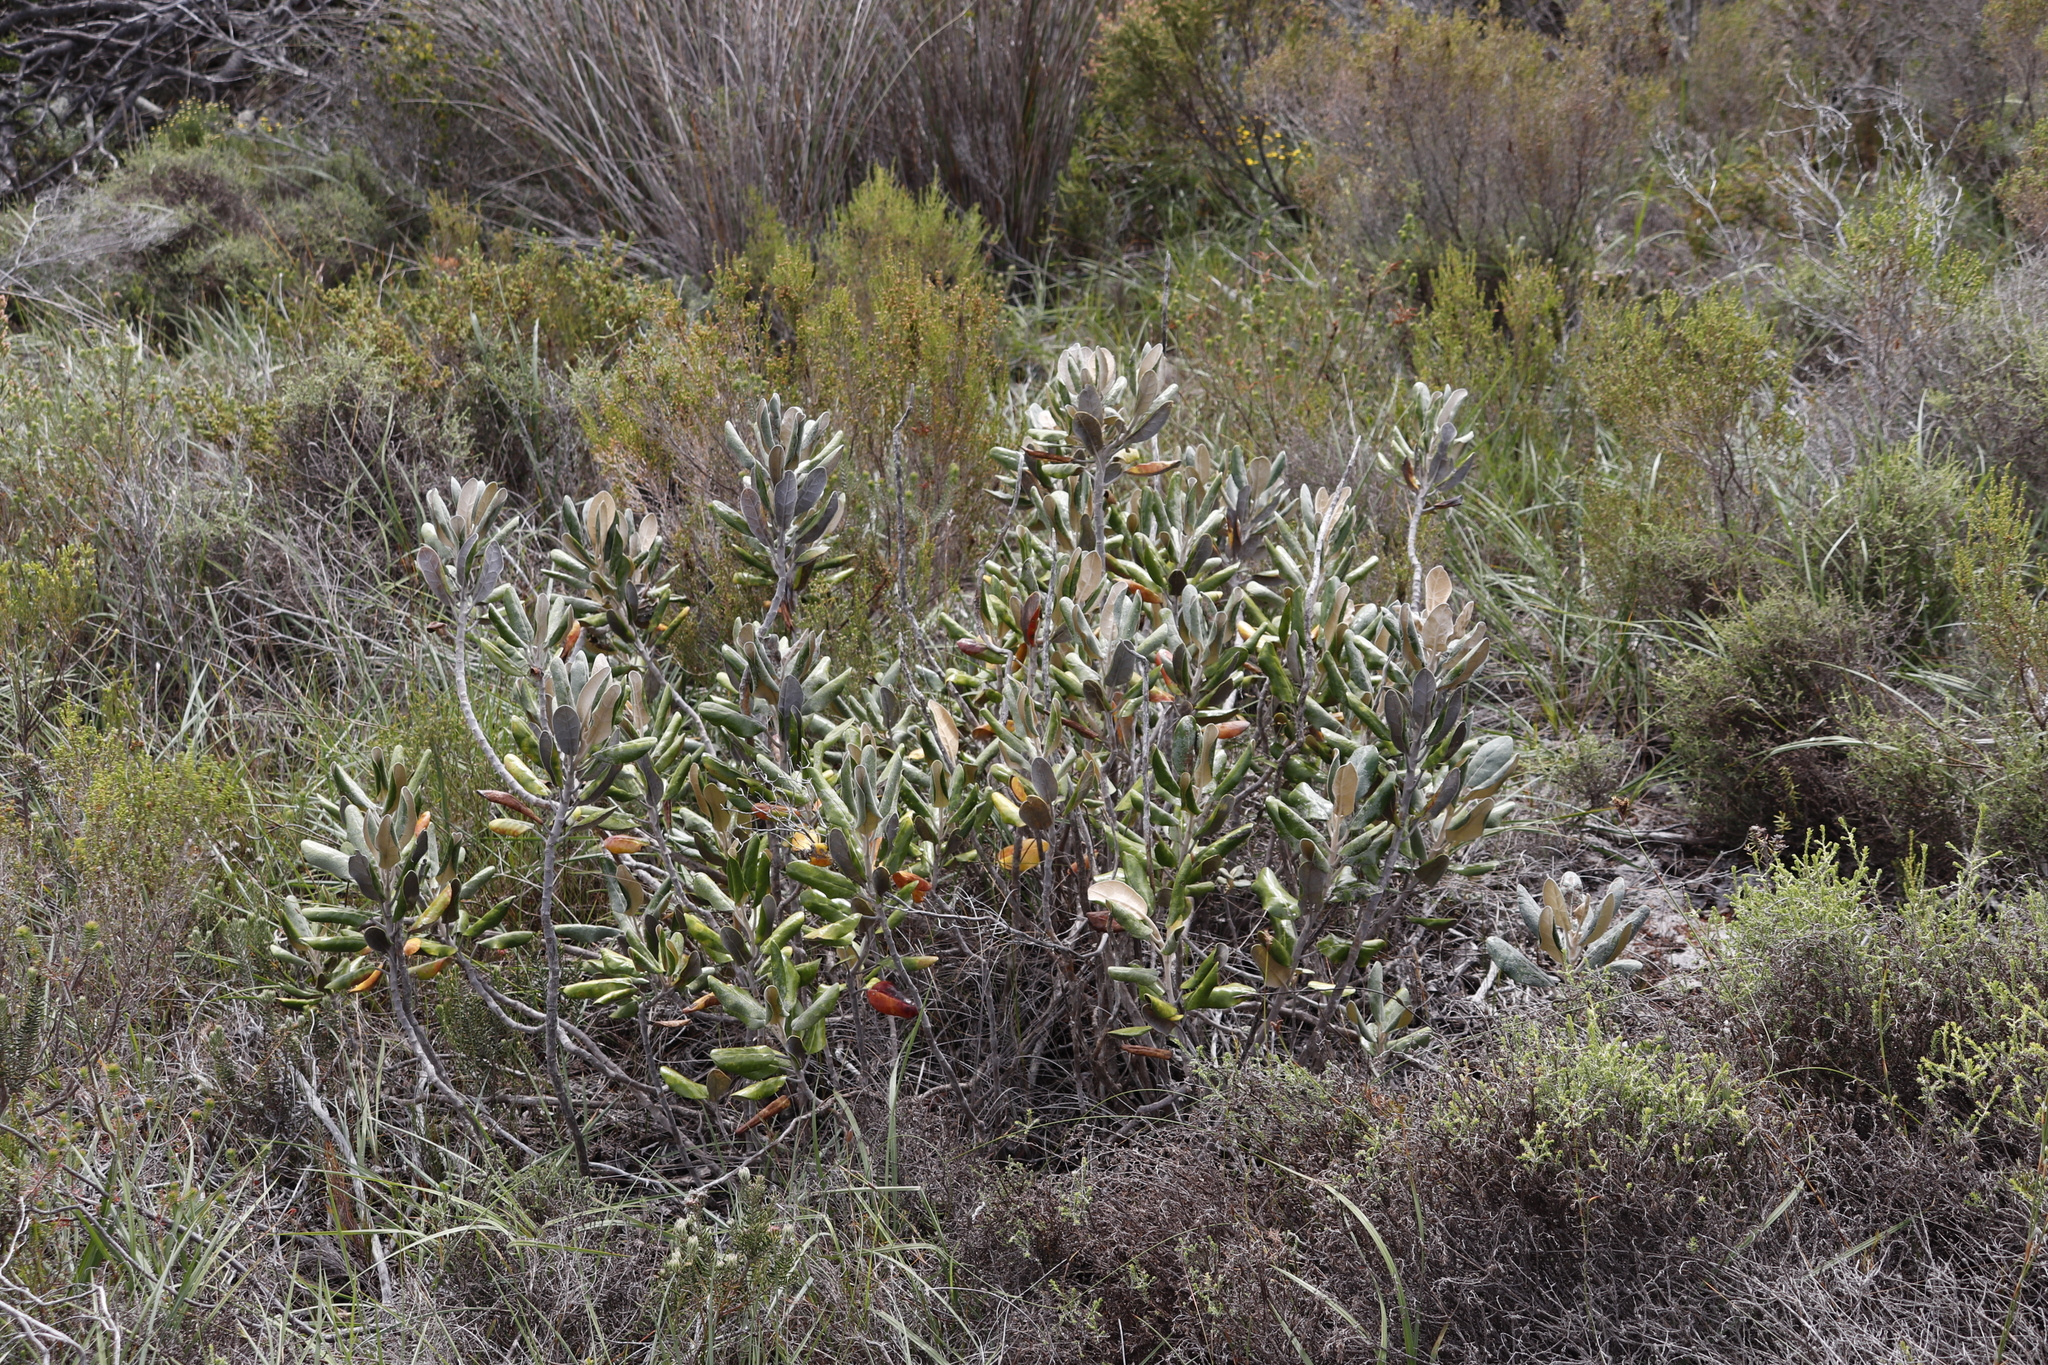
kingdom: Plantae
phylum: Tracheophyta
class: Magnoliopsida
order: Asterales
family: Asteraceae
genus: Capelio
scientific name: Capelio tabularis
